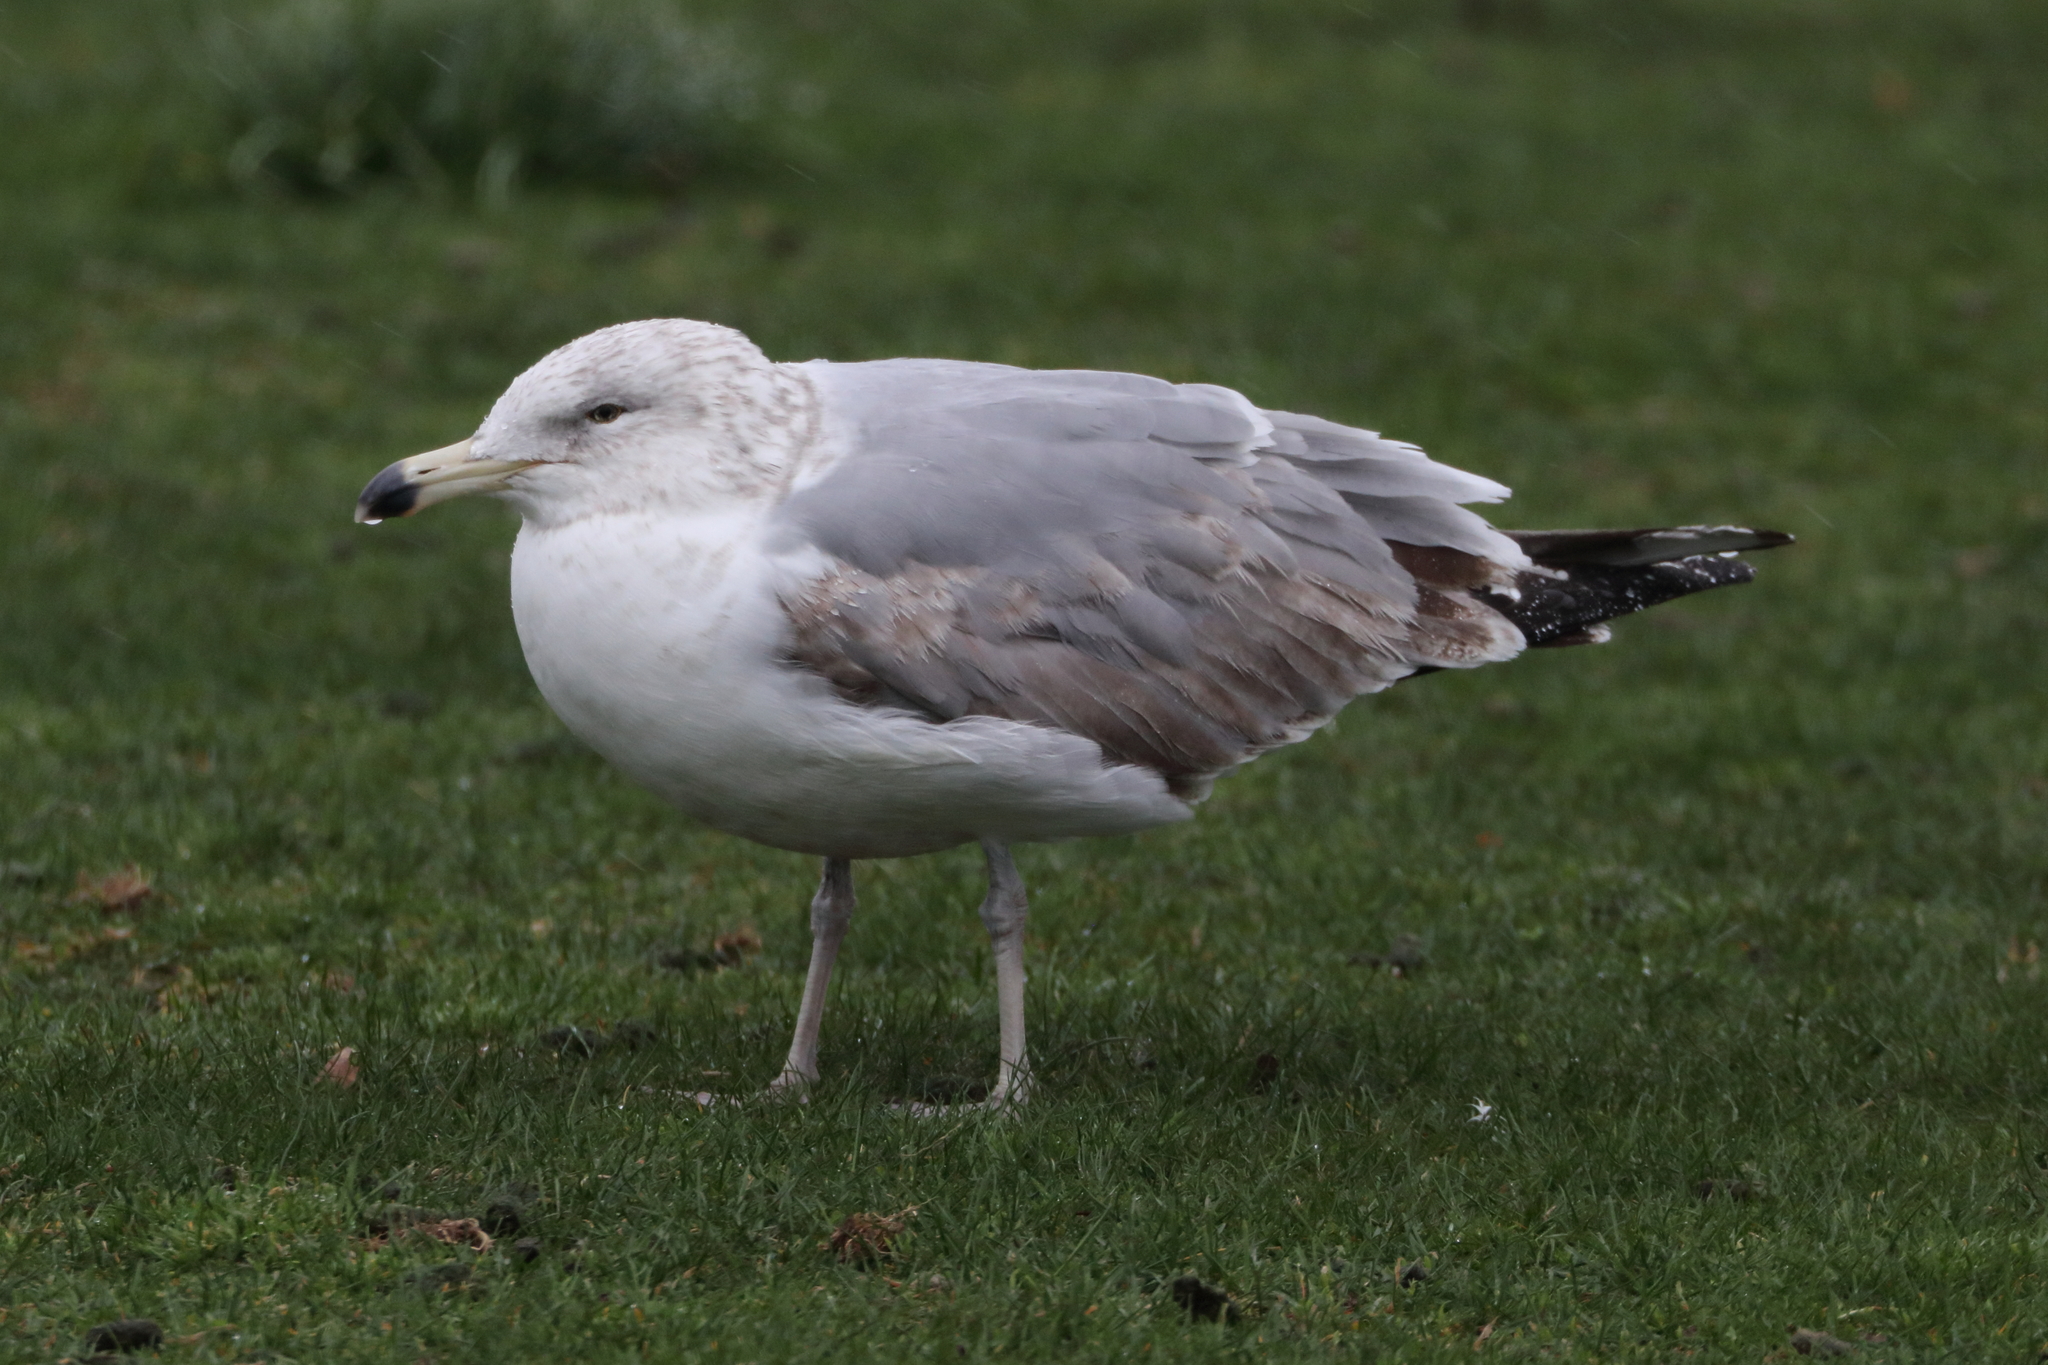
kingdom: Animalia
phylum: Chordata
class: Aves
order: Charadriiformes
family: Laridae
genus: Larus
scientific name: Larus argentatus
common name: Herring gull
